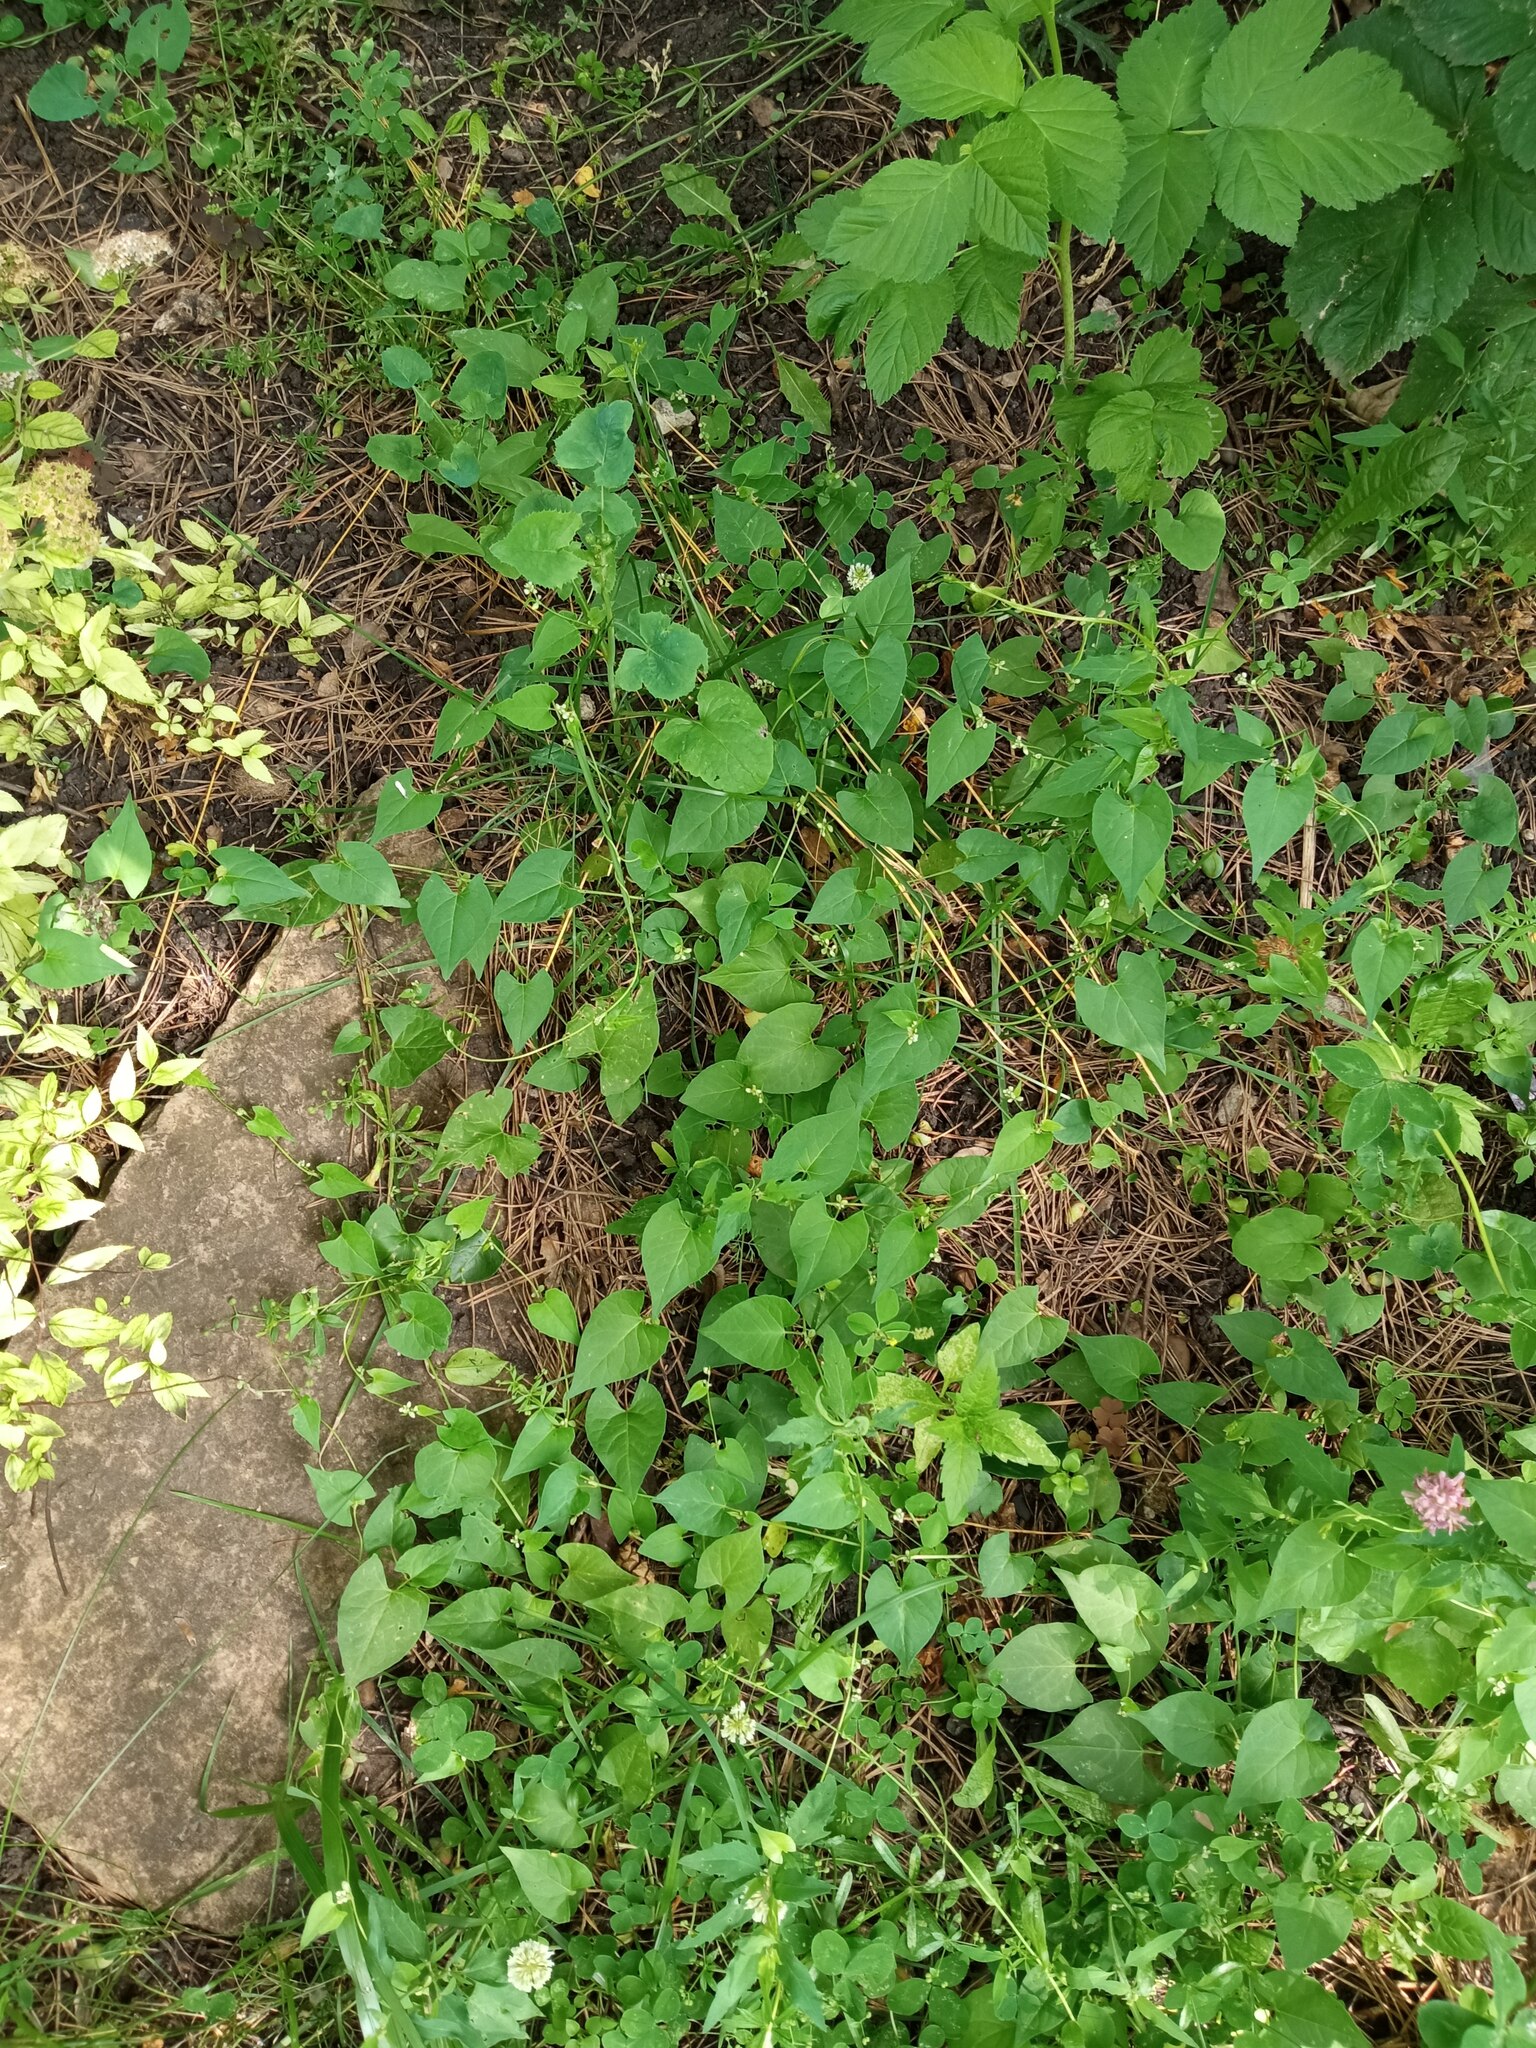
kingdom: Plantae
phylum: Tracheophyta
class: Magnoliopsida
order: Caryophyllales
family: Polygonaceae
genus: Fallopia
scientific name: Fallopia convolvulus
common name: Black bindweed
